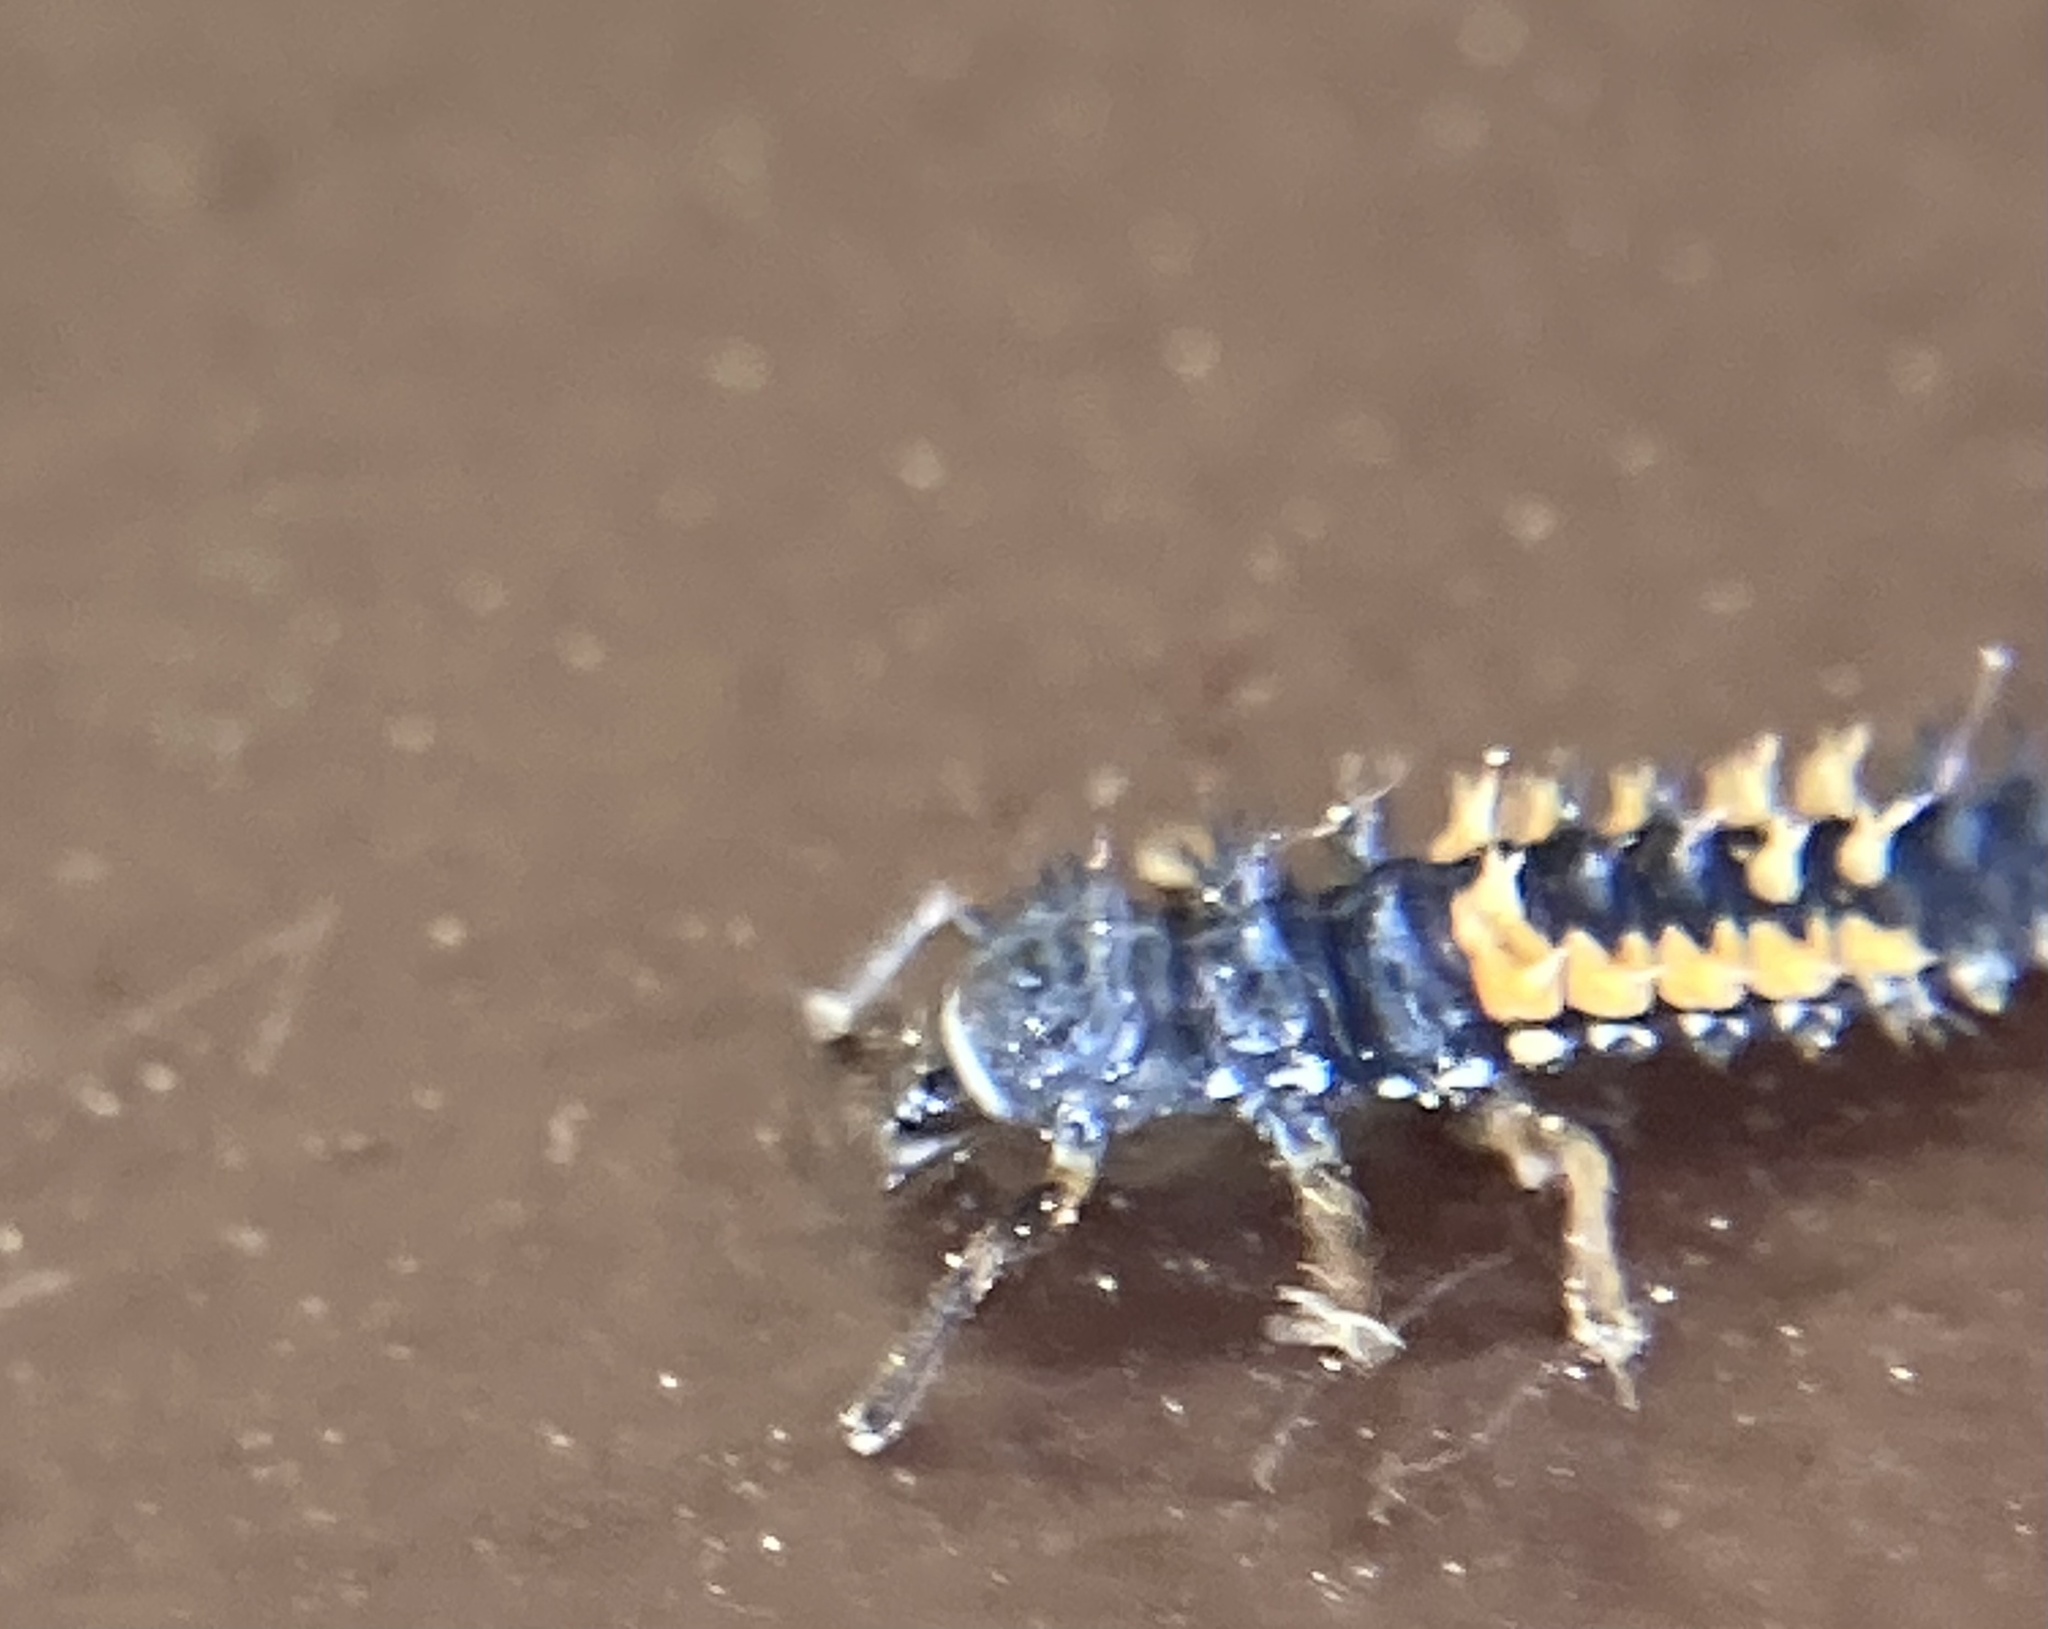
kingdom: Animalia
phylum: Arthropoda
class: Insecta
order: Coleoptera
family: Coccinellidae
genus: Harmonia
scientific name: Harmonia axyridis
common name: Harlequin ladybird
